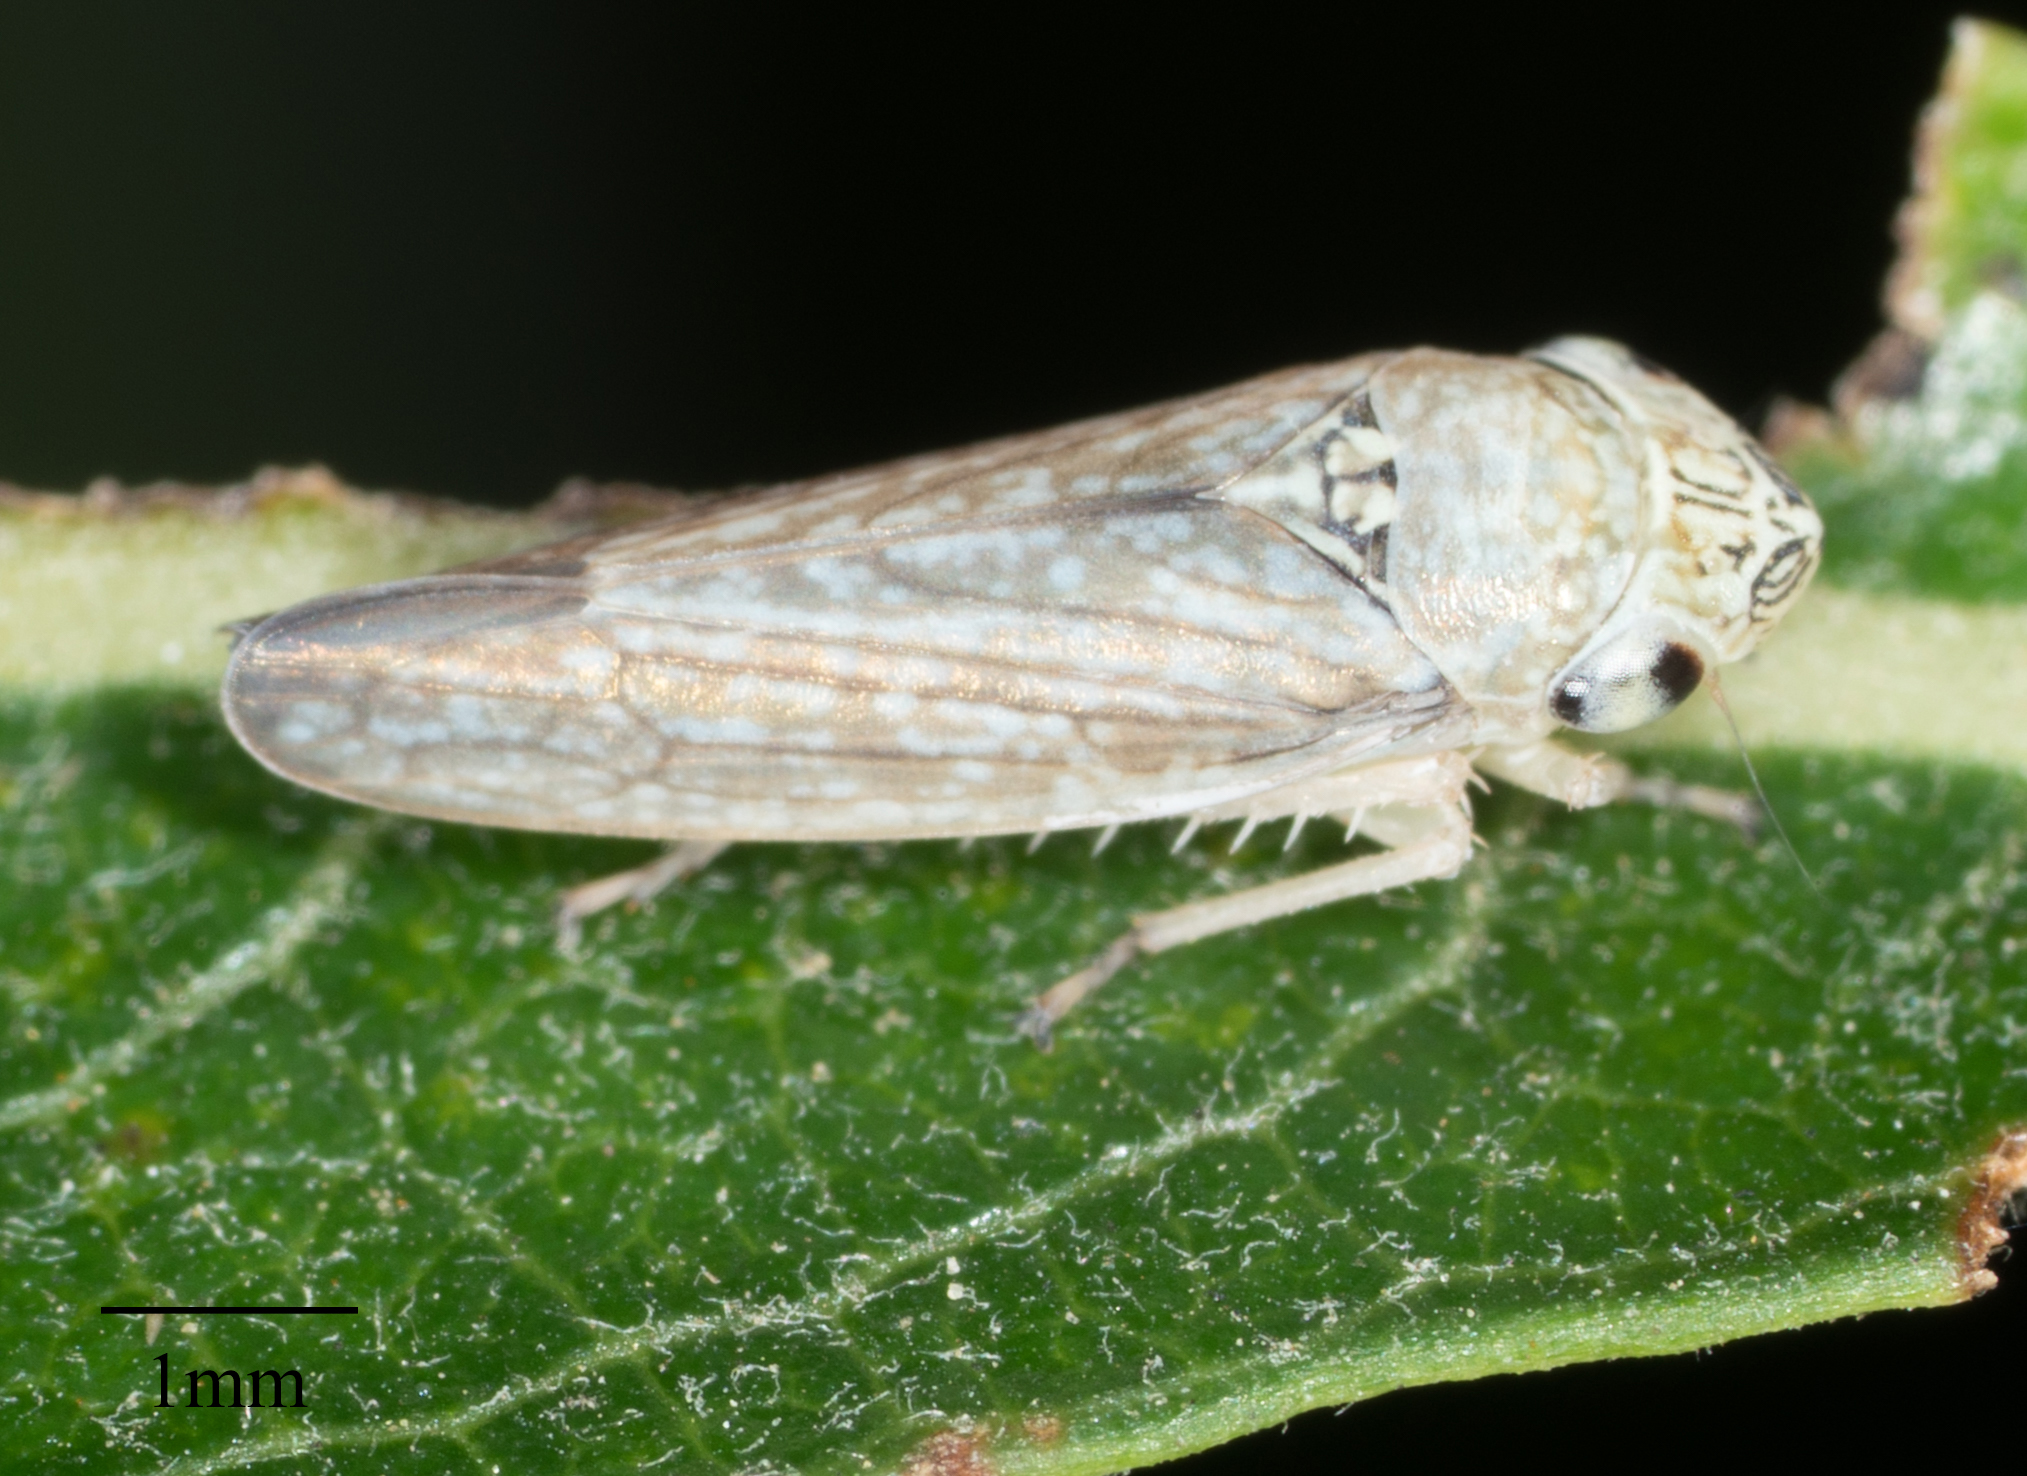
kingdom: Animalia
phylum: Arthropoda
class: Insecta
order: Hemiptera
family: Cicadellidae
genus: Graphocephala
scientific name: Graphocephala confluens
